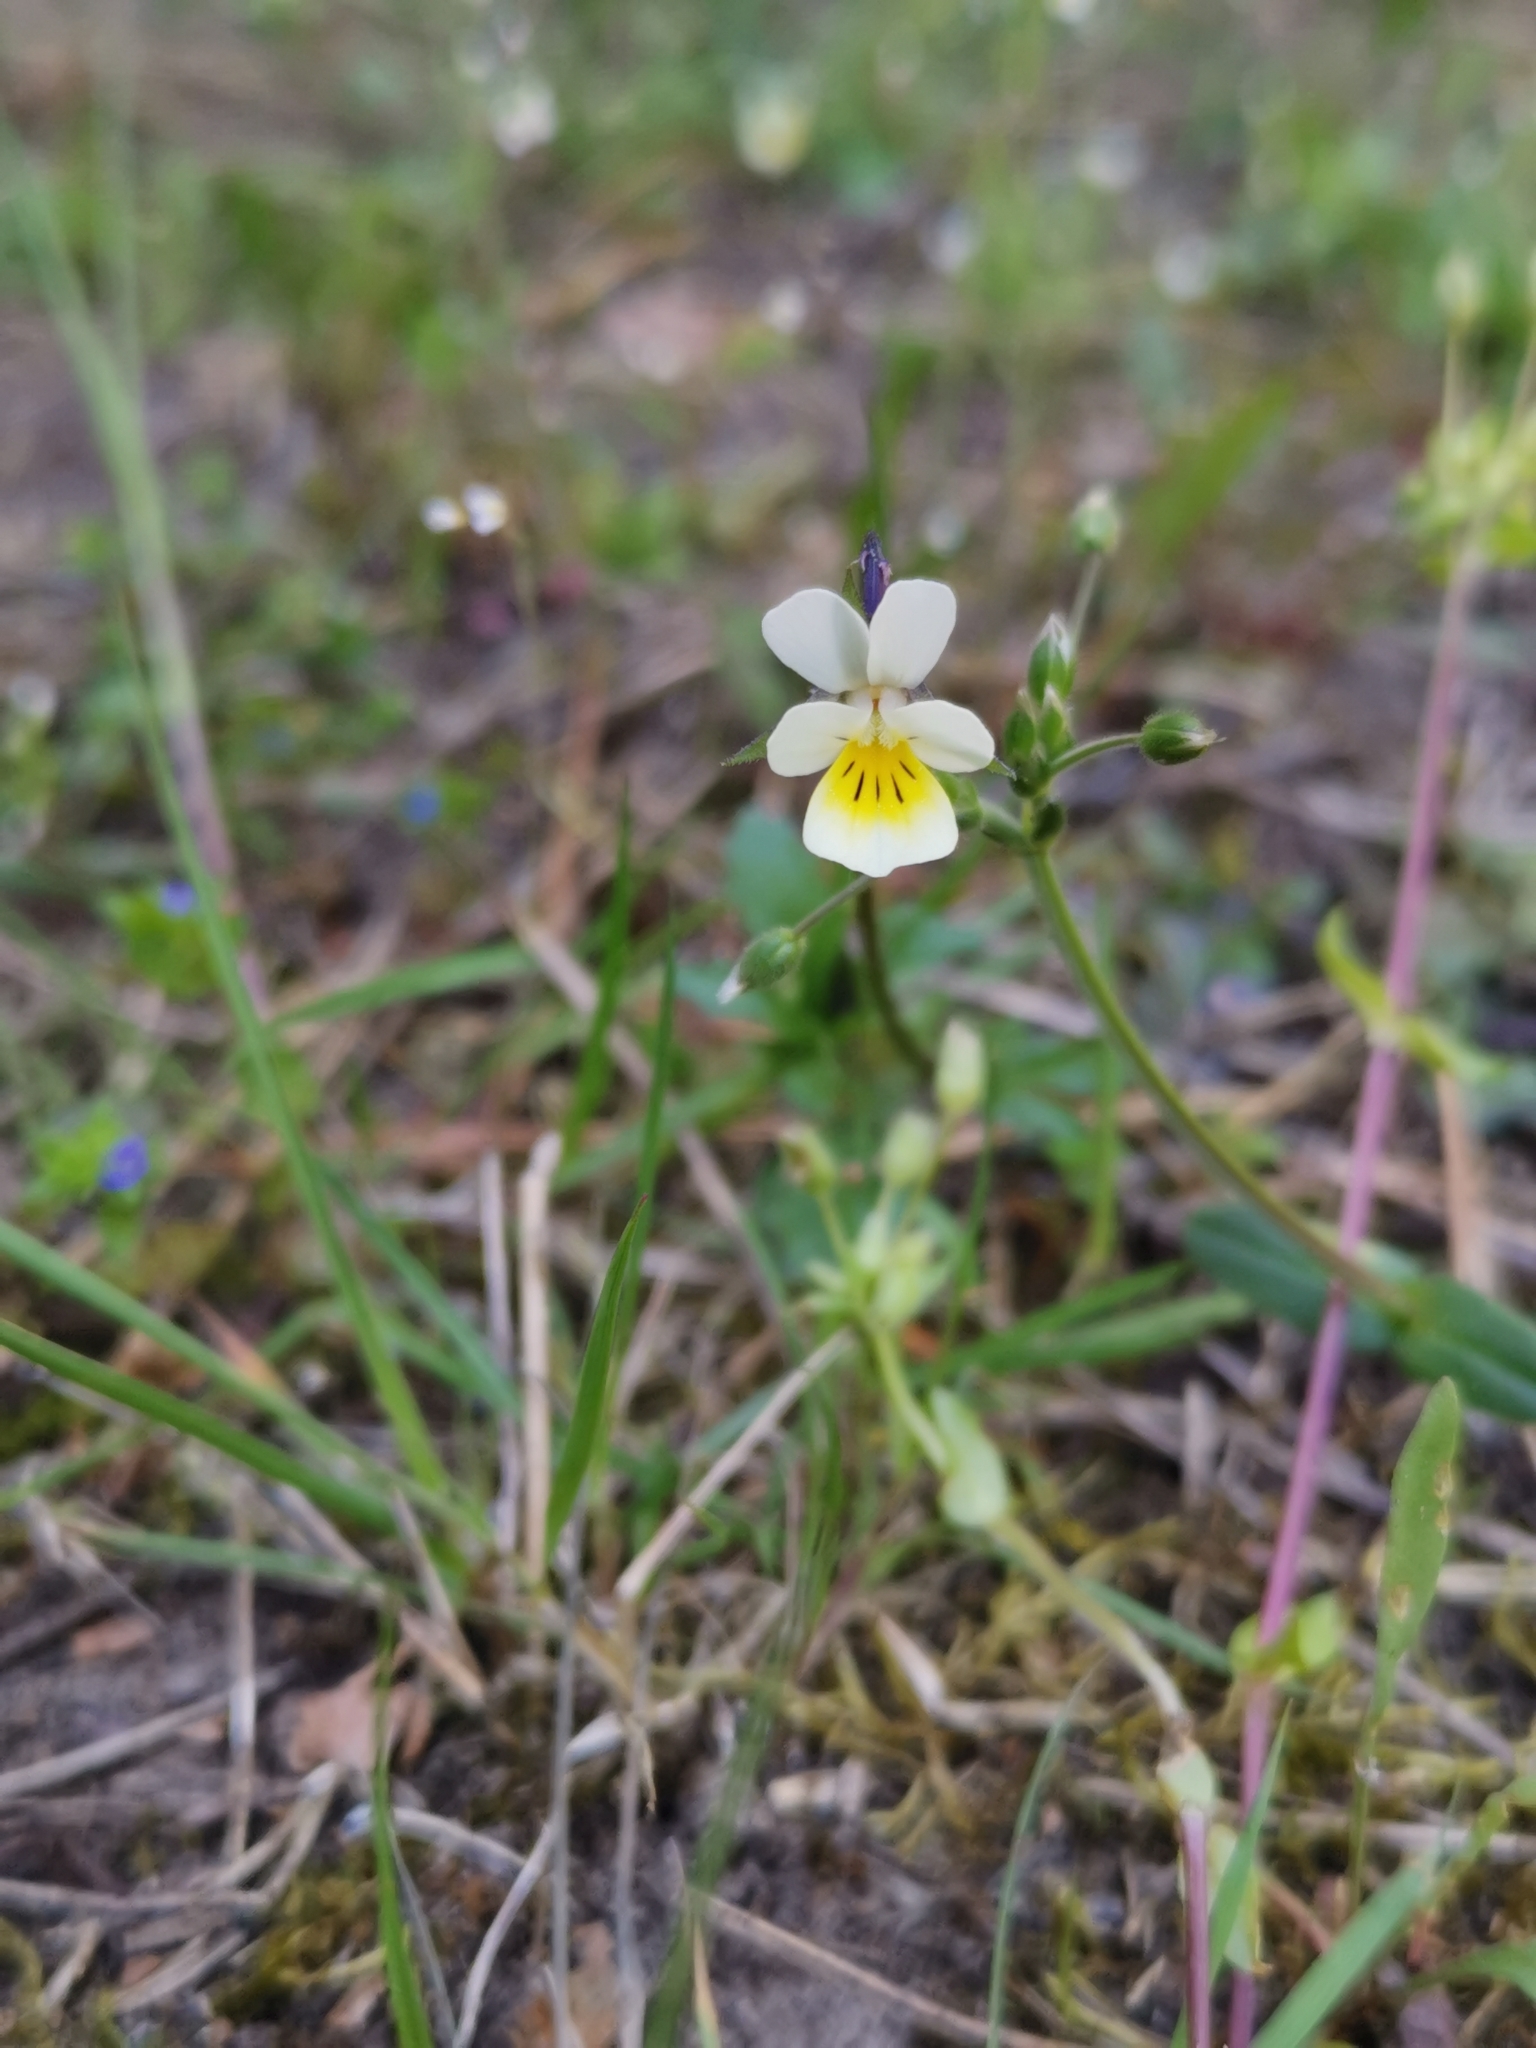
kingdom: Plantae
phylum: Tracheophyta
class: Magnoliopsida
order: Malpighiales
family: Violaceae
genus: Viola
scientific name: Viola arvensis
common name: Field pansy
